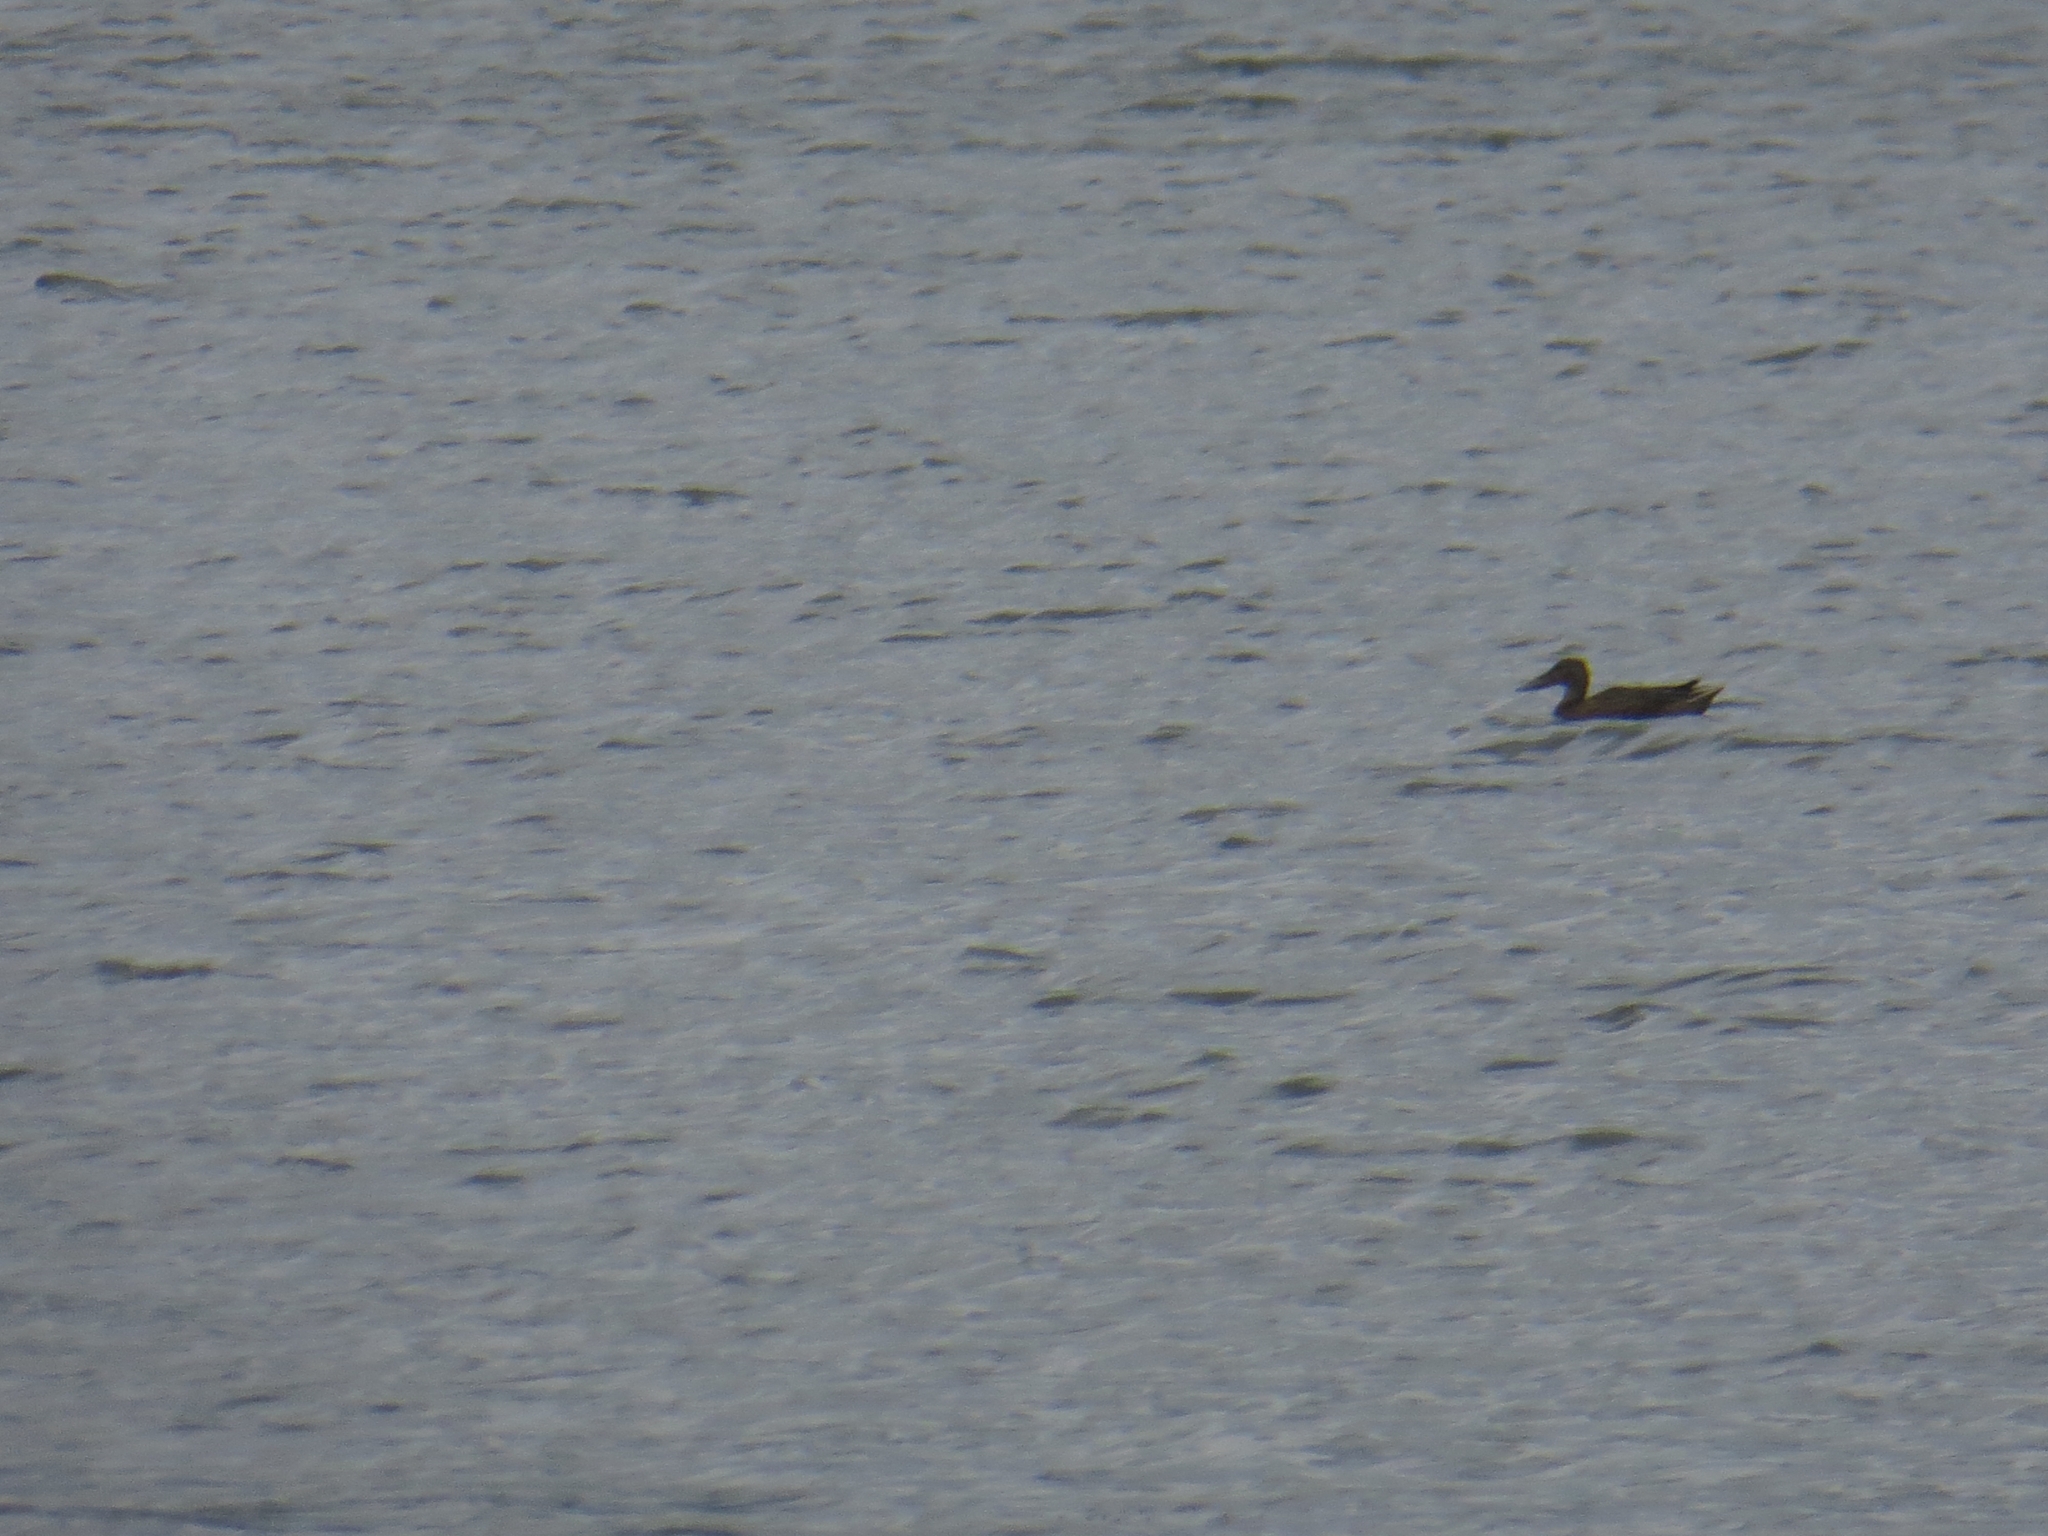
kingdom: Animalia
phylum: Chordata
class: Aves
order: Anseriformes
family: Anatidae
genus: Spatula
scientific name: Spatula clypeata
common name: Northern shoveler
